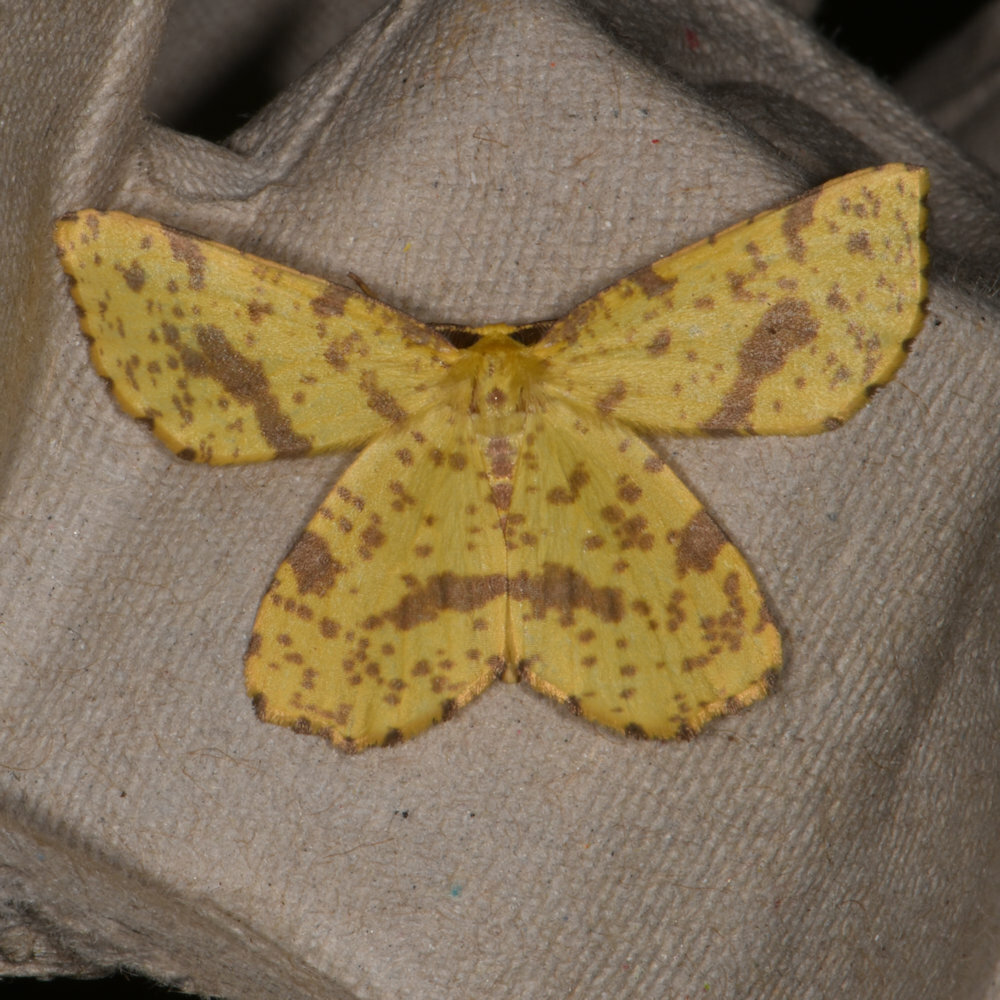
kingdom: Animalia
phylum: Arthropoda
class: Insecta
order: Lepidoptera
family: Geometridae
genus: Xanthotype
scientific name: Xanthotype
